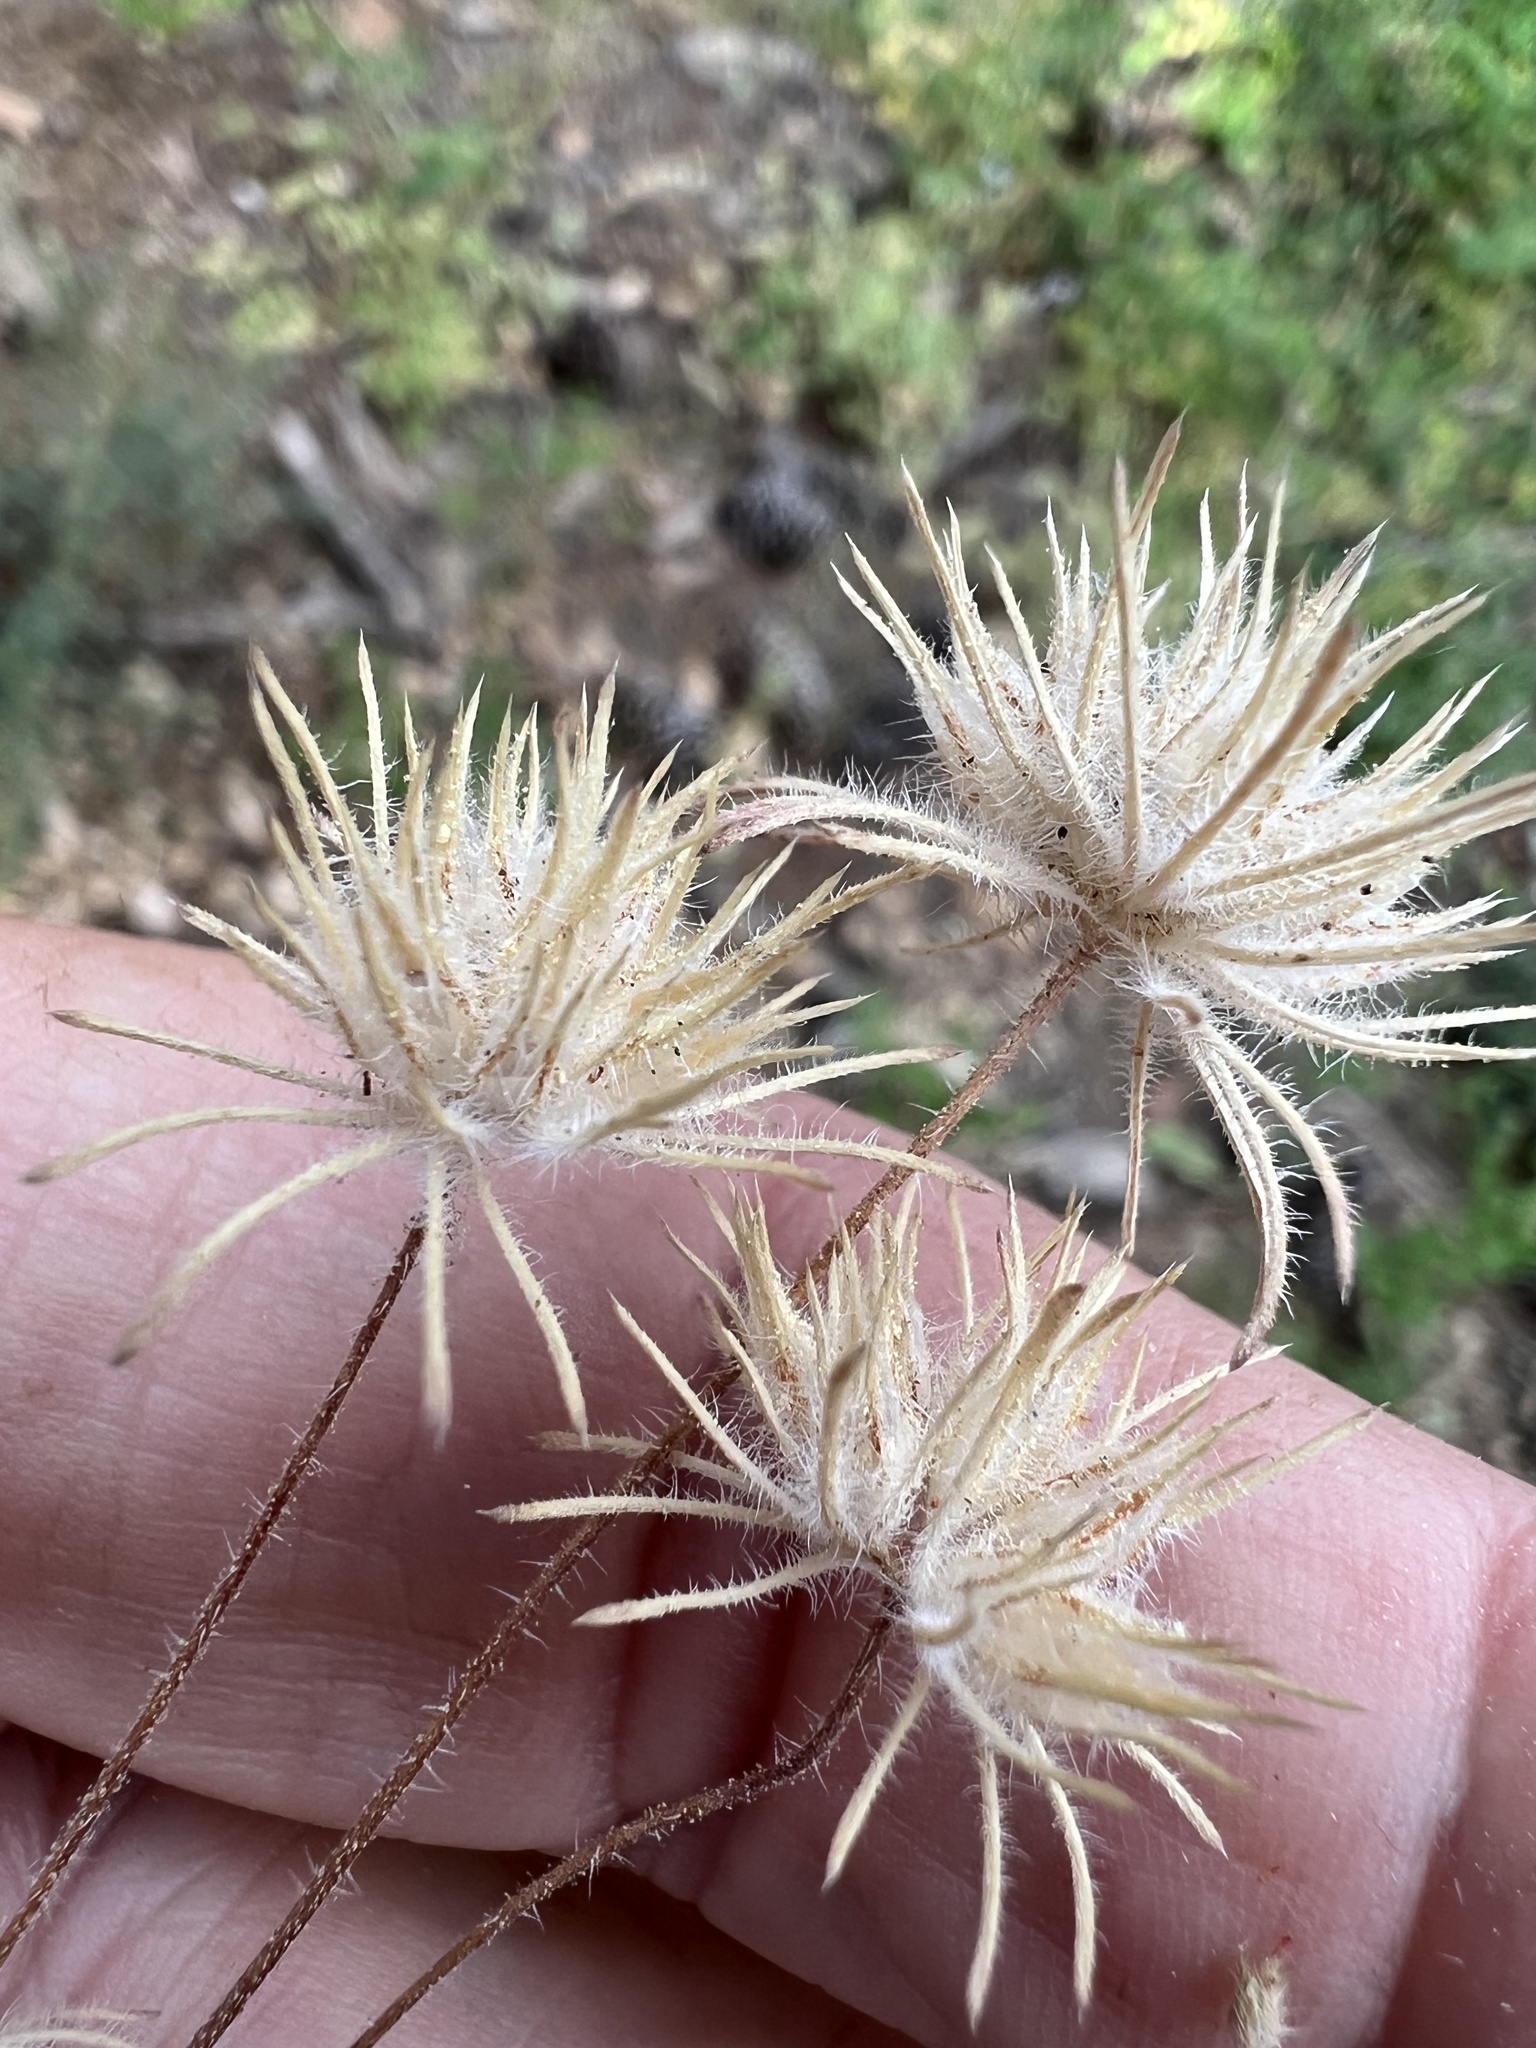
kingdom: Plantae
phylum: Tracheophyta
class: Magnoliopsida
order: Ericales
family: Polemoniaceae
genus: Leptosiphon
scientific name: Leptosiphon ciliatus
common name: Whiskerbrush
